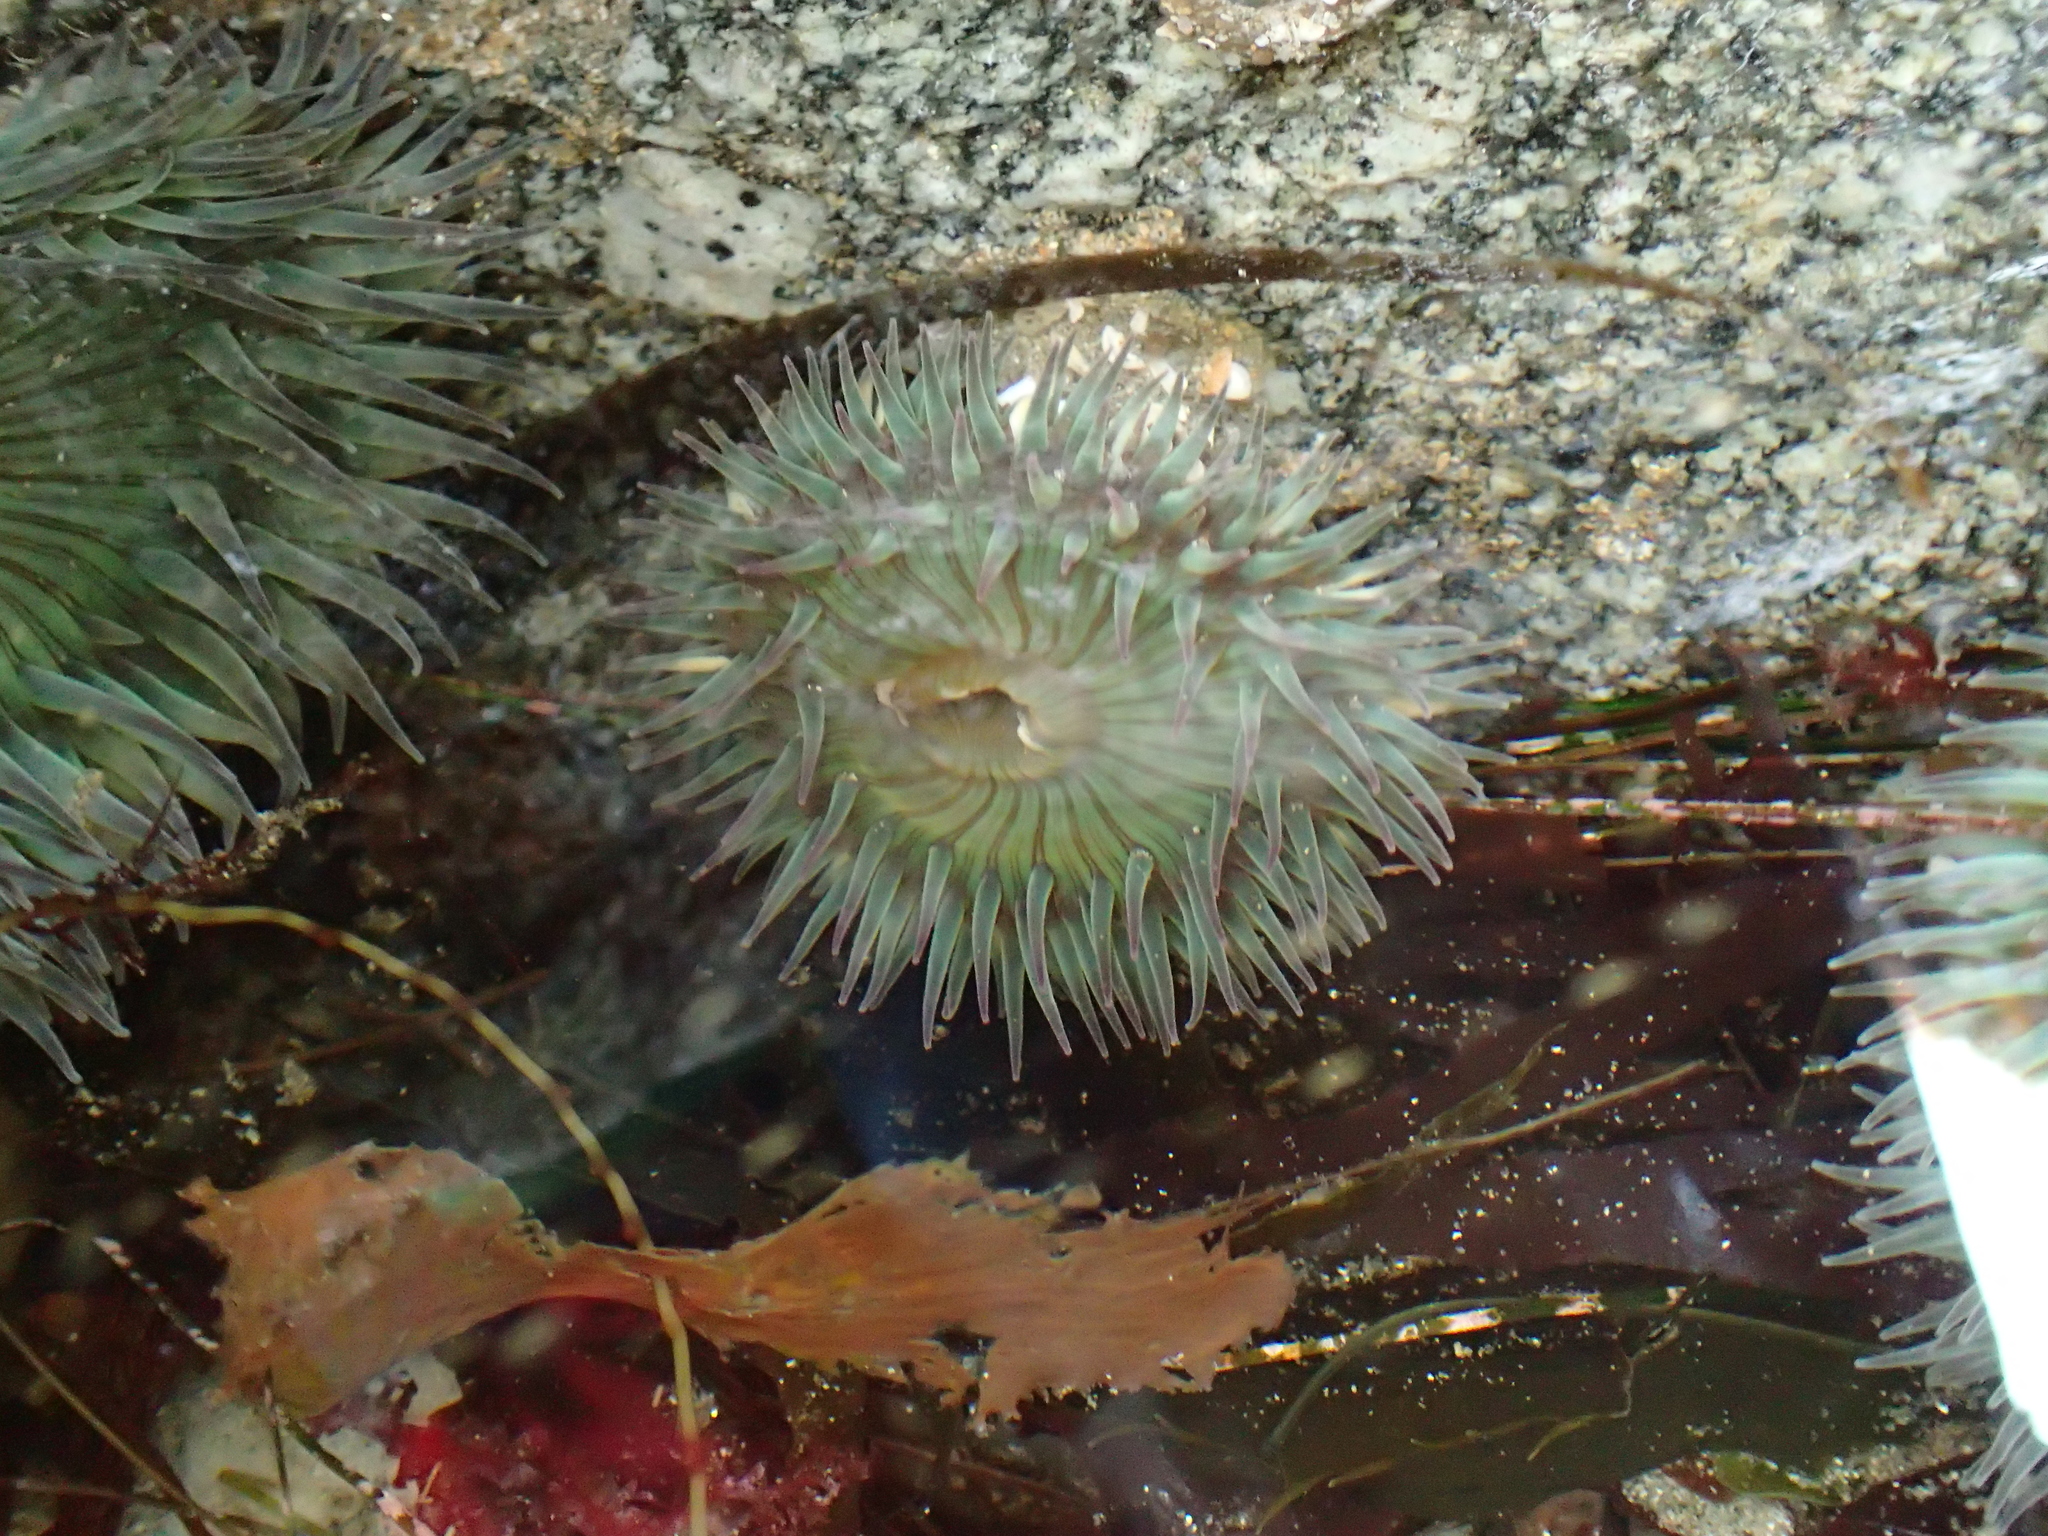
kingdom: Animalia
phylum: Cnidaria
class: Anthozoa
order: Actiniaria
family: Actiniidae
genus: Anthopleura
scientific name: Anthopleura sola
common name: Sun anemone
